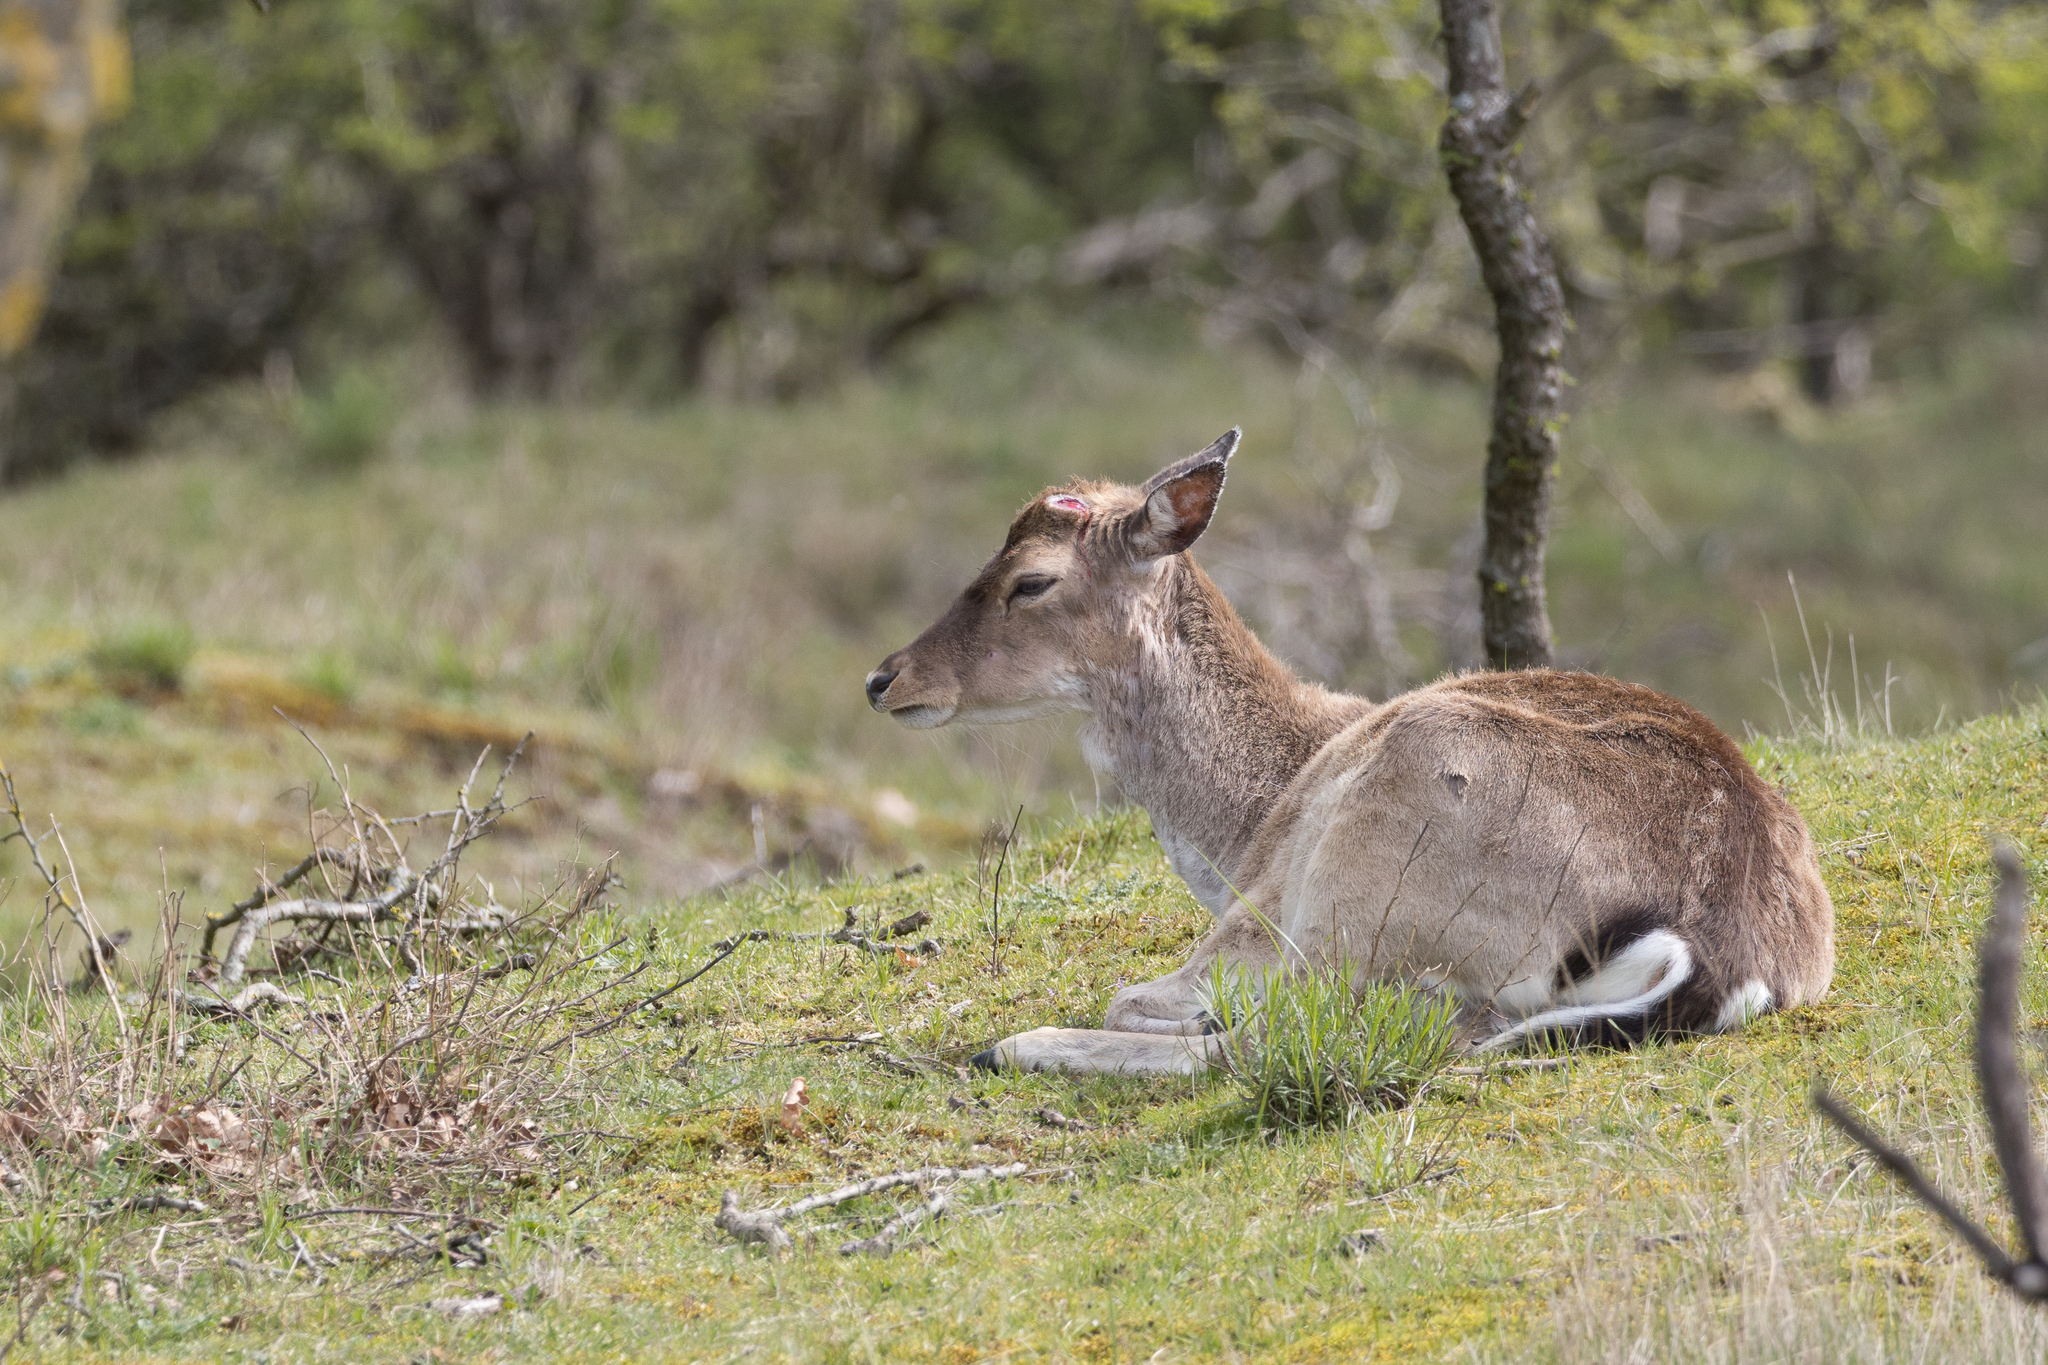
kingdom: Animalia
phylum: Chordata
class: Mammalia
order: Artiodactyla
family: Cervidae
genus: Dama
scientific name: Dama dama
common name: Fallow deer
